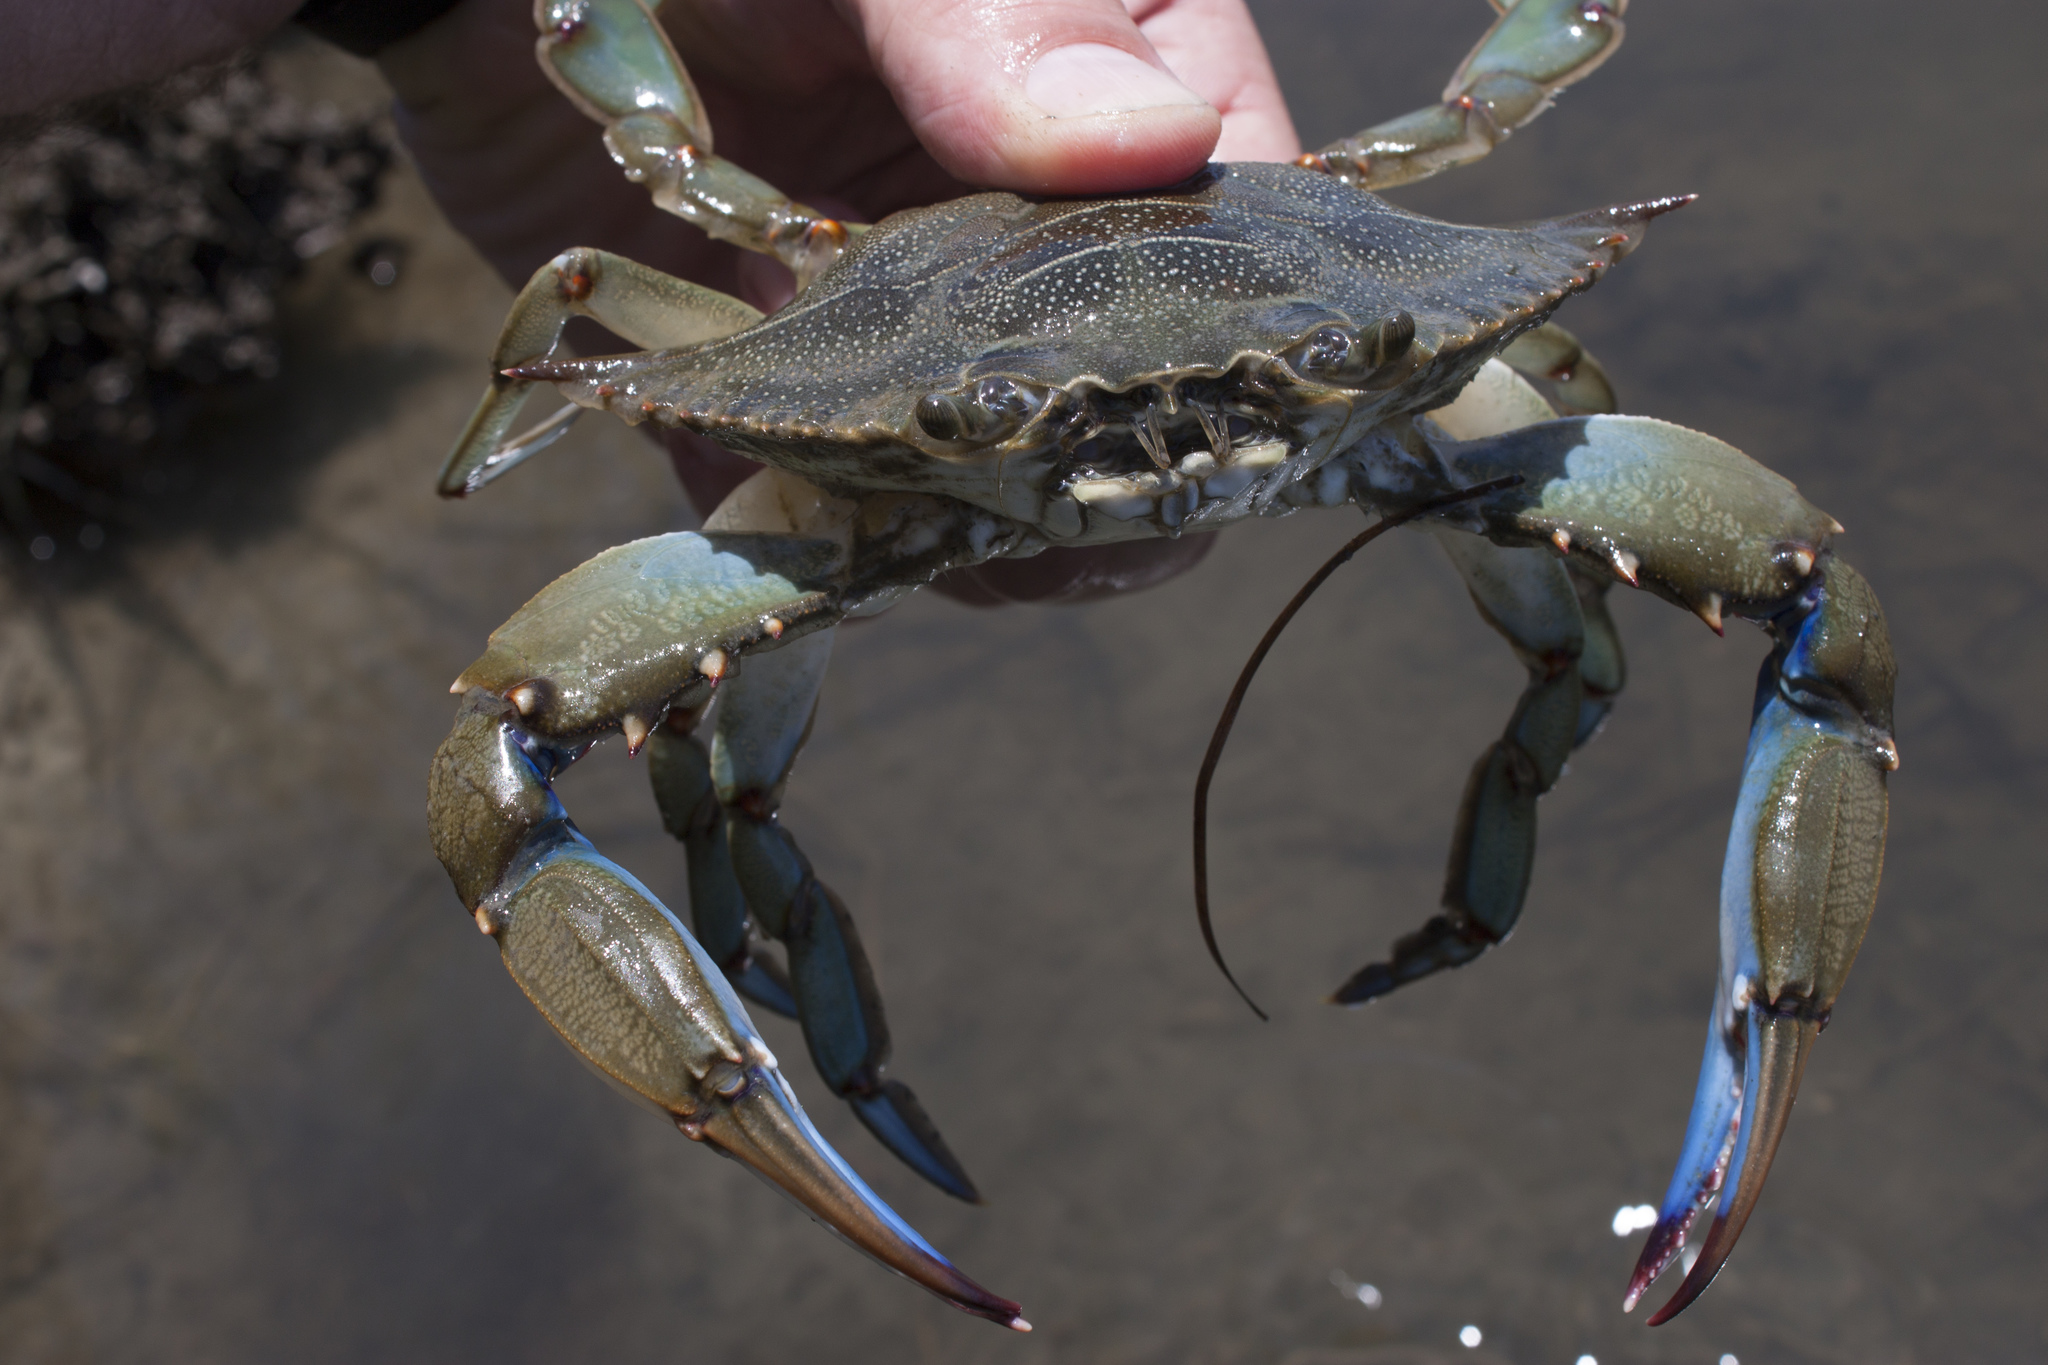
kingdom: Animalia
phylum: Arthropoda
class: Malacostraca
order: Decapoda
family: Portunidae
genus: Callinectes
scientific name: Callinectes sapidus
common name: Blue crab
